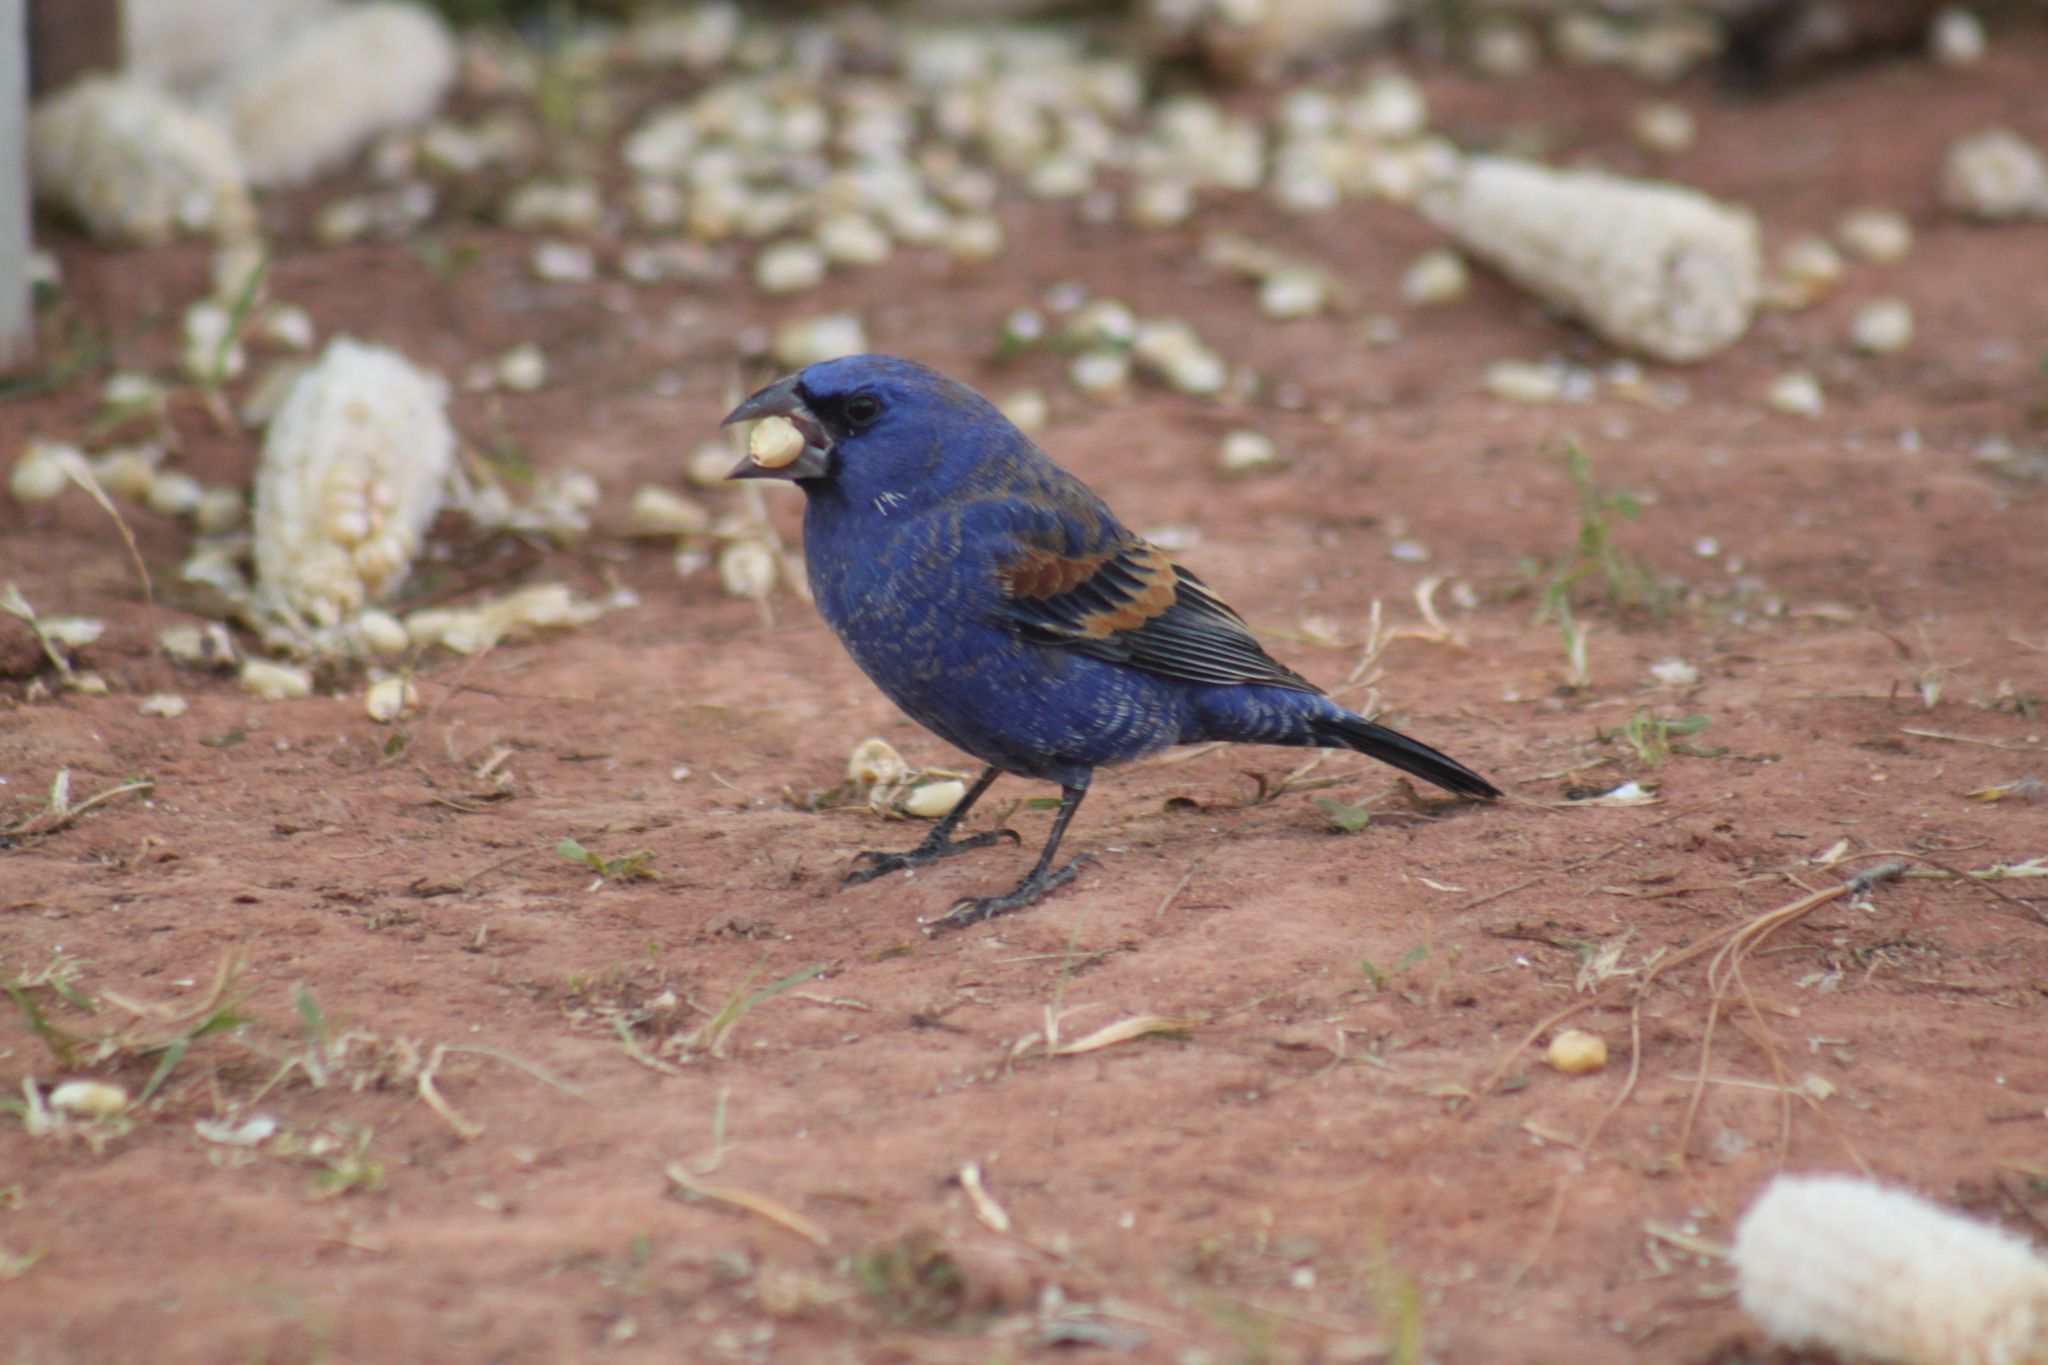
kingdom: Animalia
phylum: Chordata
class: Aves
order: Passeriformes
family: Cardinalidae
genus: Passerina
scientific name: Passerina caerulea
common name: Blue grosbeak
